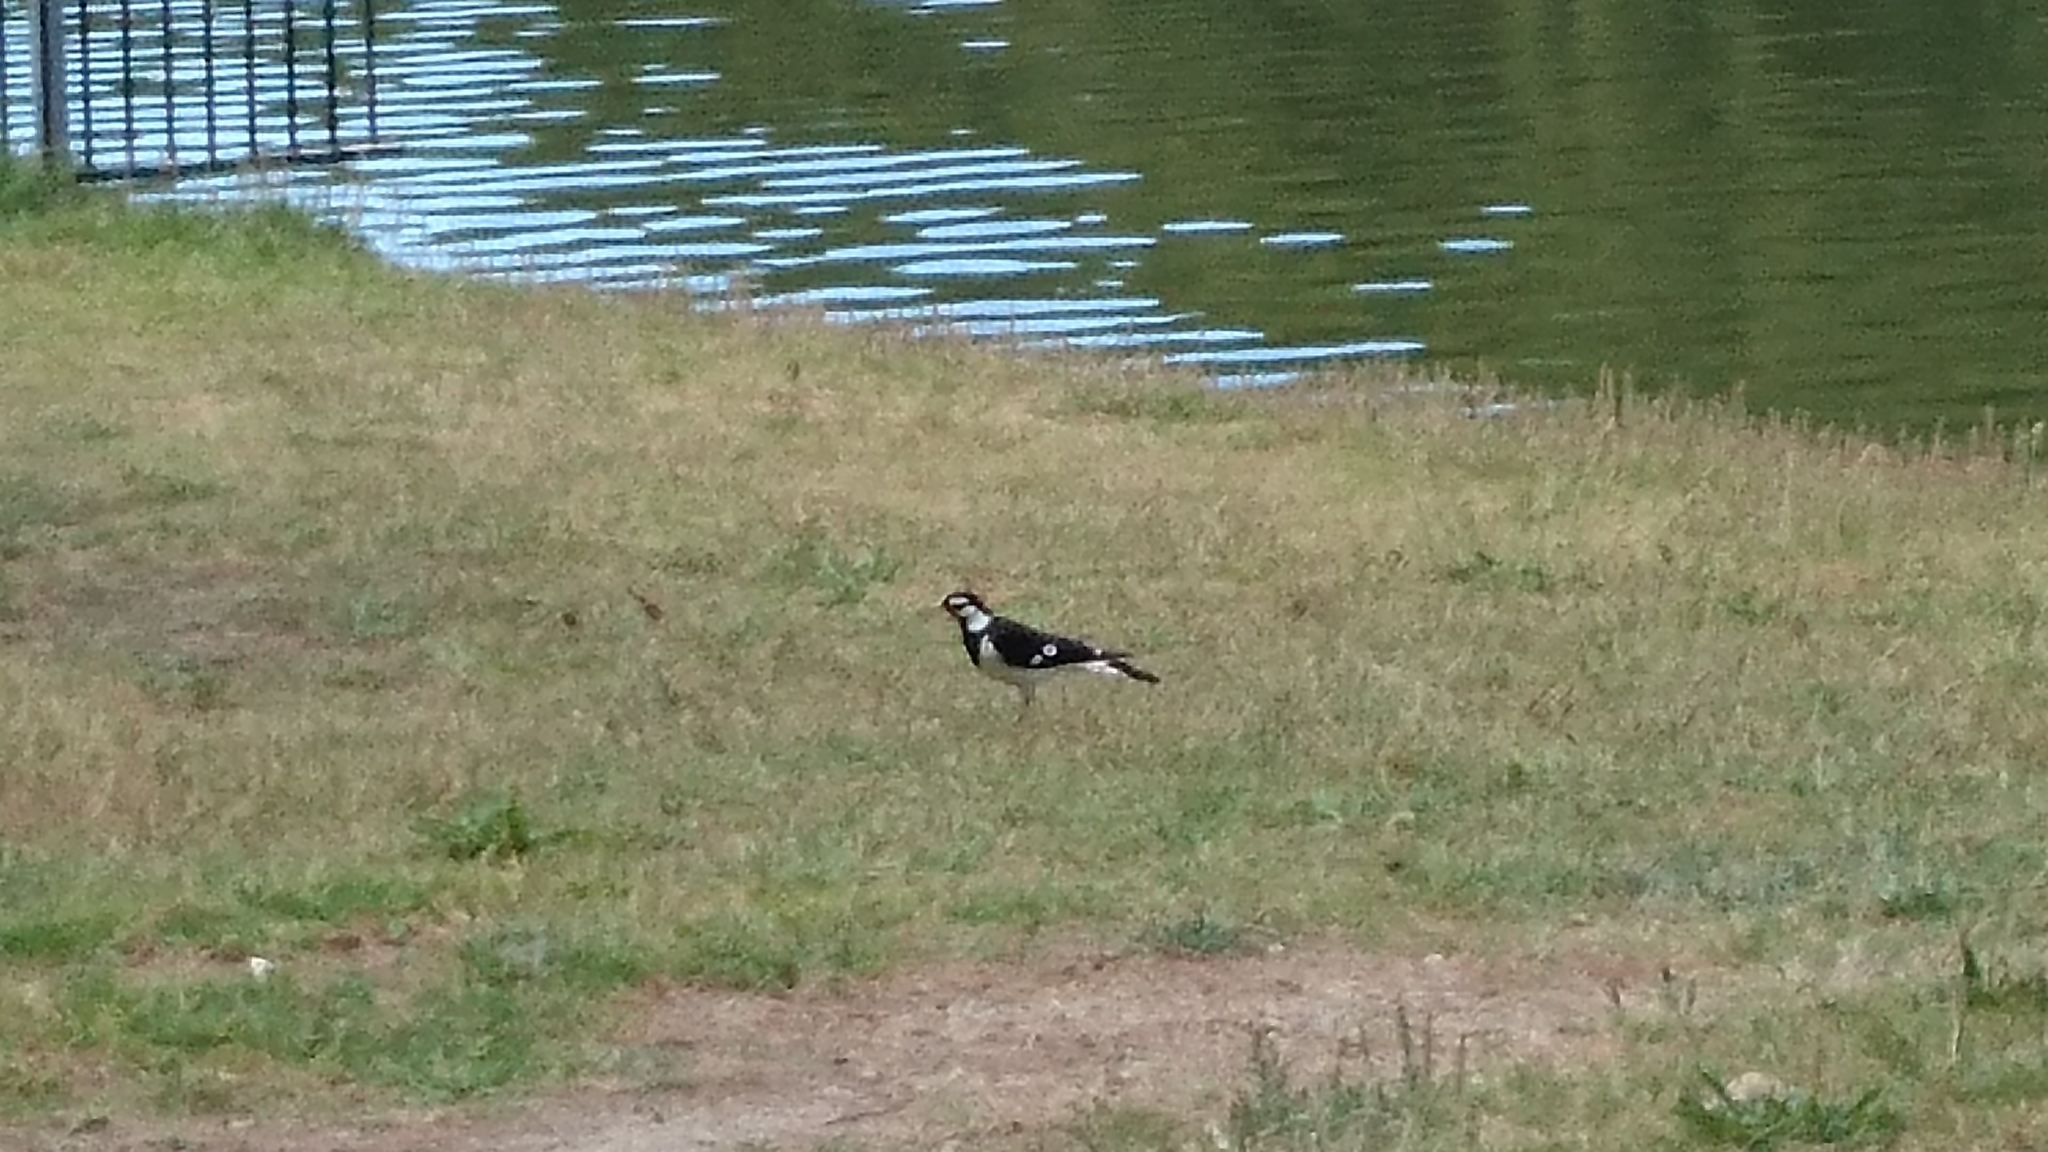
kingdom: Animalia
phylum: Chordata
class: Aves
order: Passeriformes
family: Monarchidae
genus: Grallina
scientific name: Grallina cyanoleuca
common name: Magpie-lark
